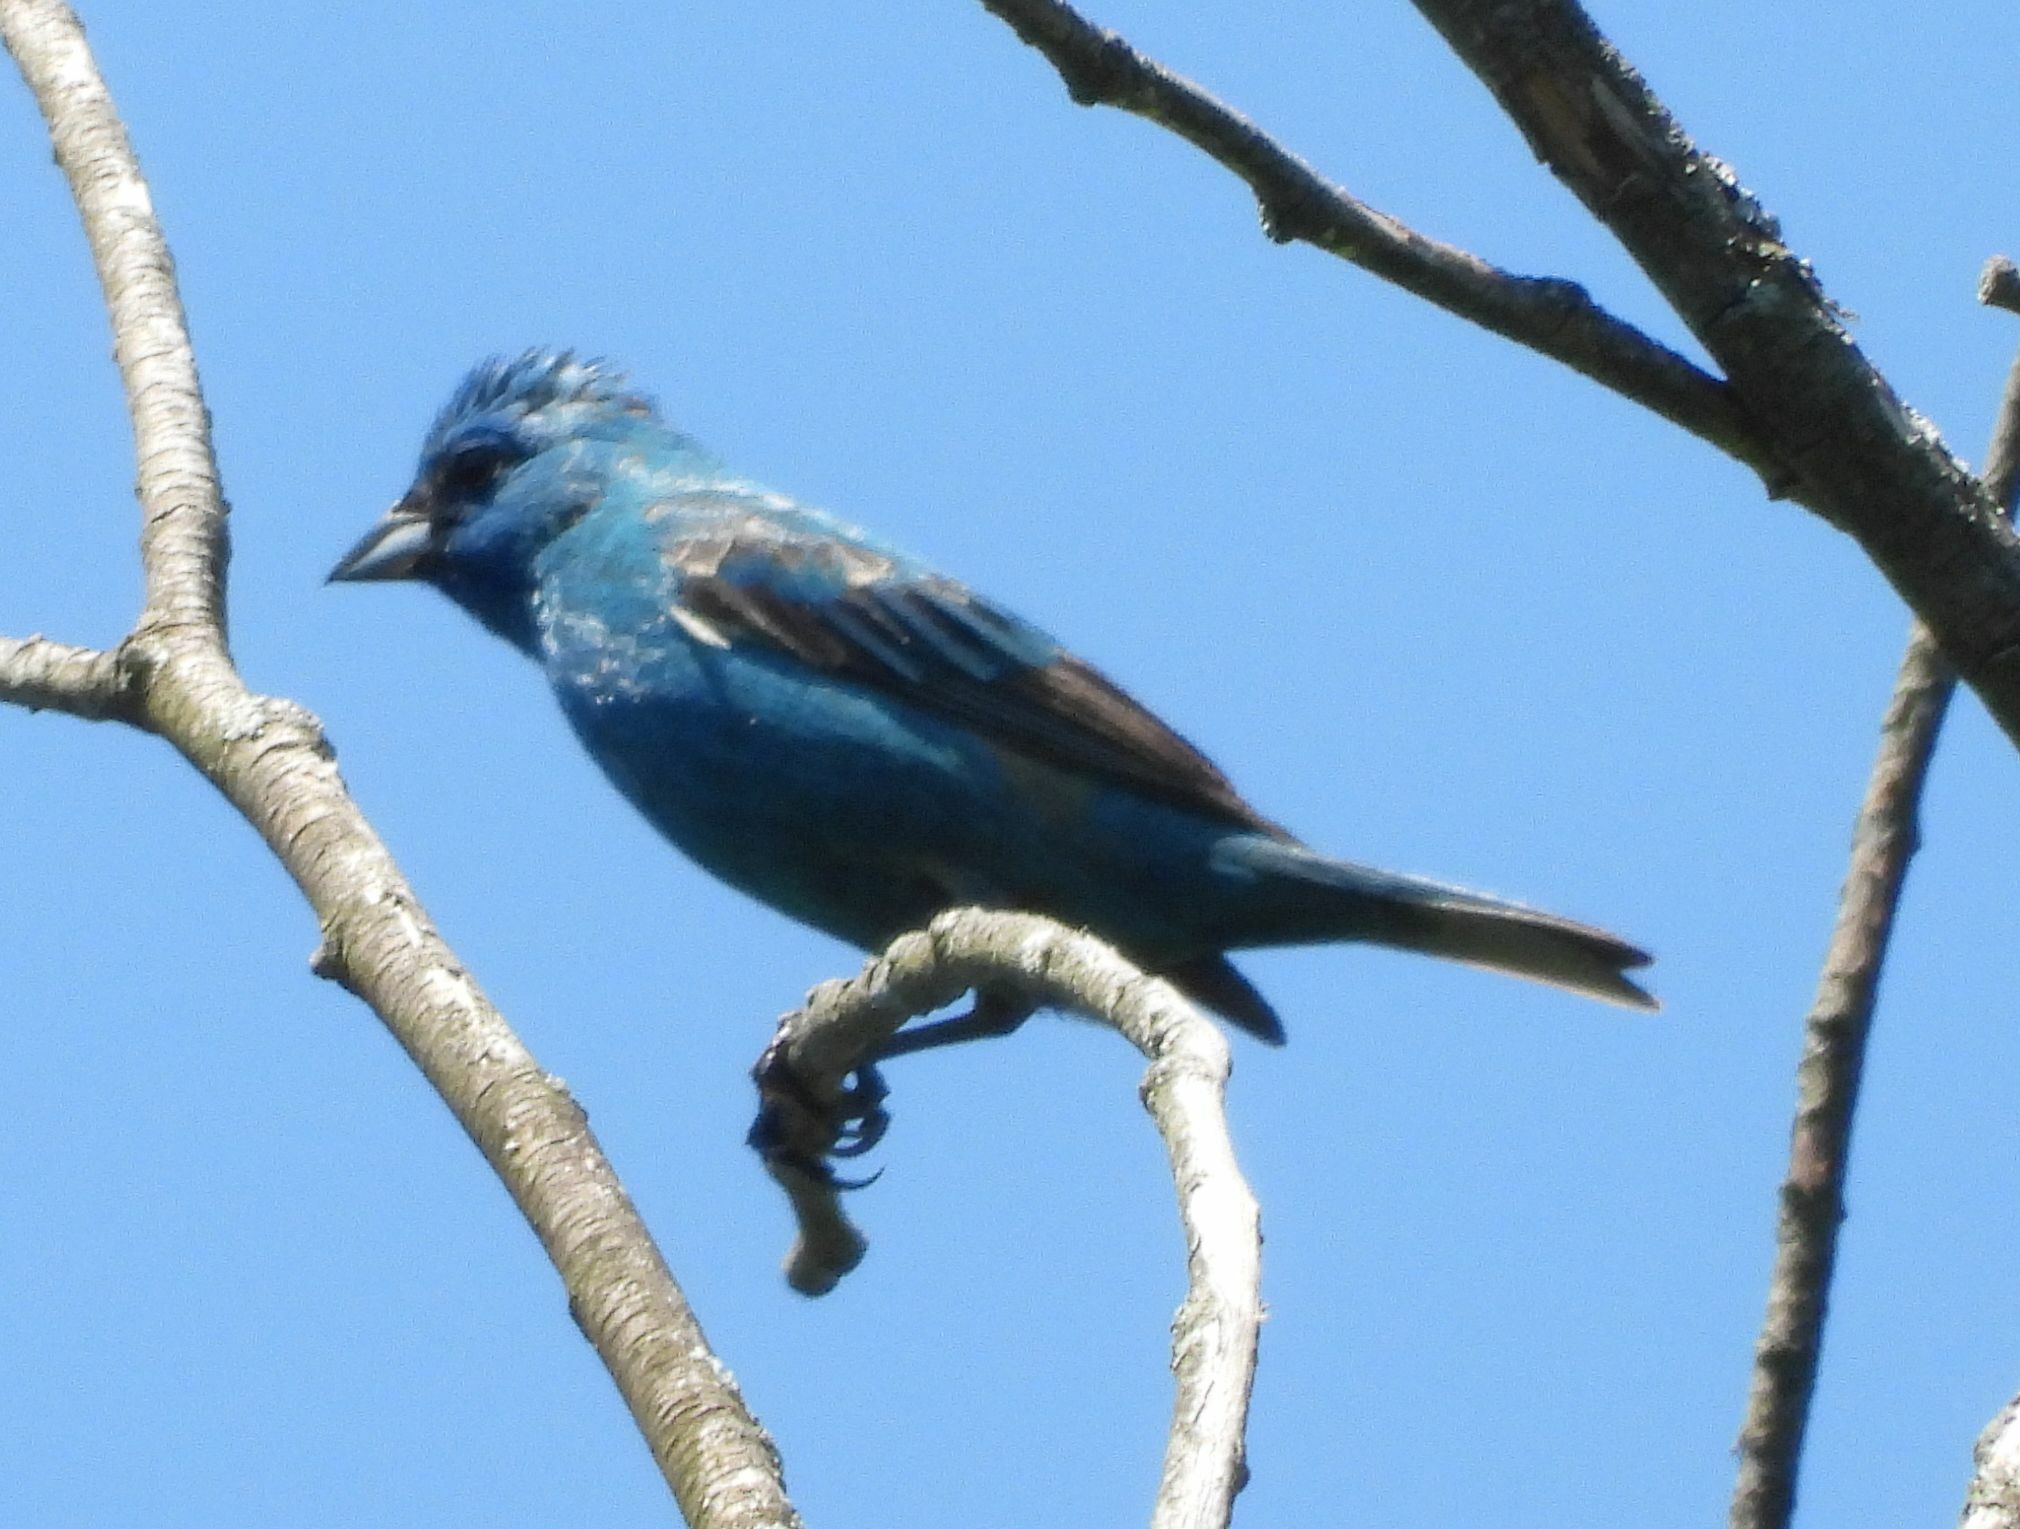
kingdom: Animalia
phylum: Chordata
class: Aves
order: Passeriformes
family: Cardinalidae
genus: Passerina
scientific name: Passerina cyanea
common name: Indigo bunting
